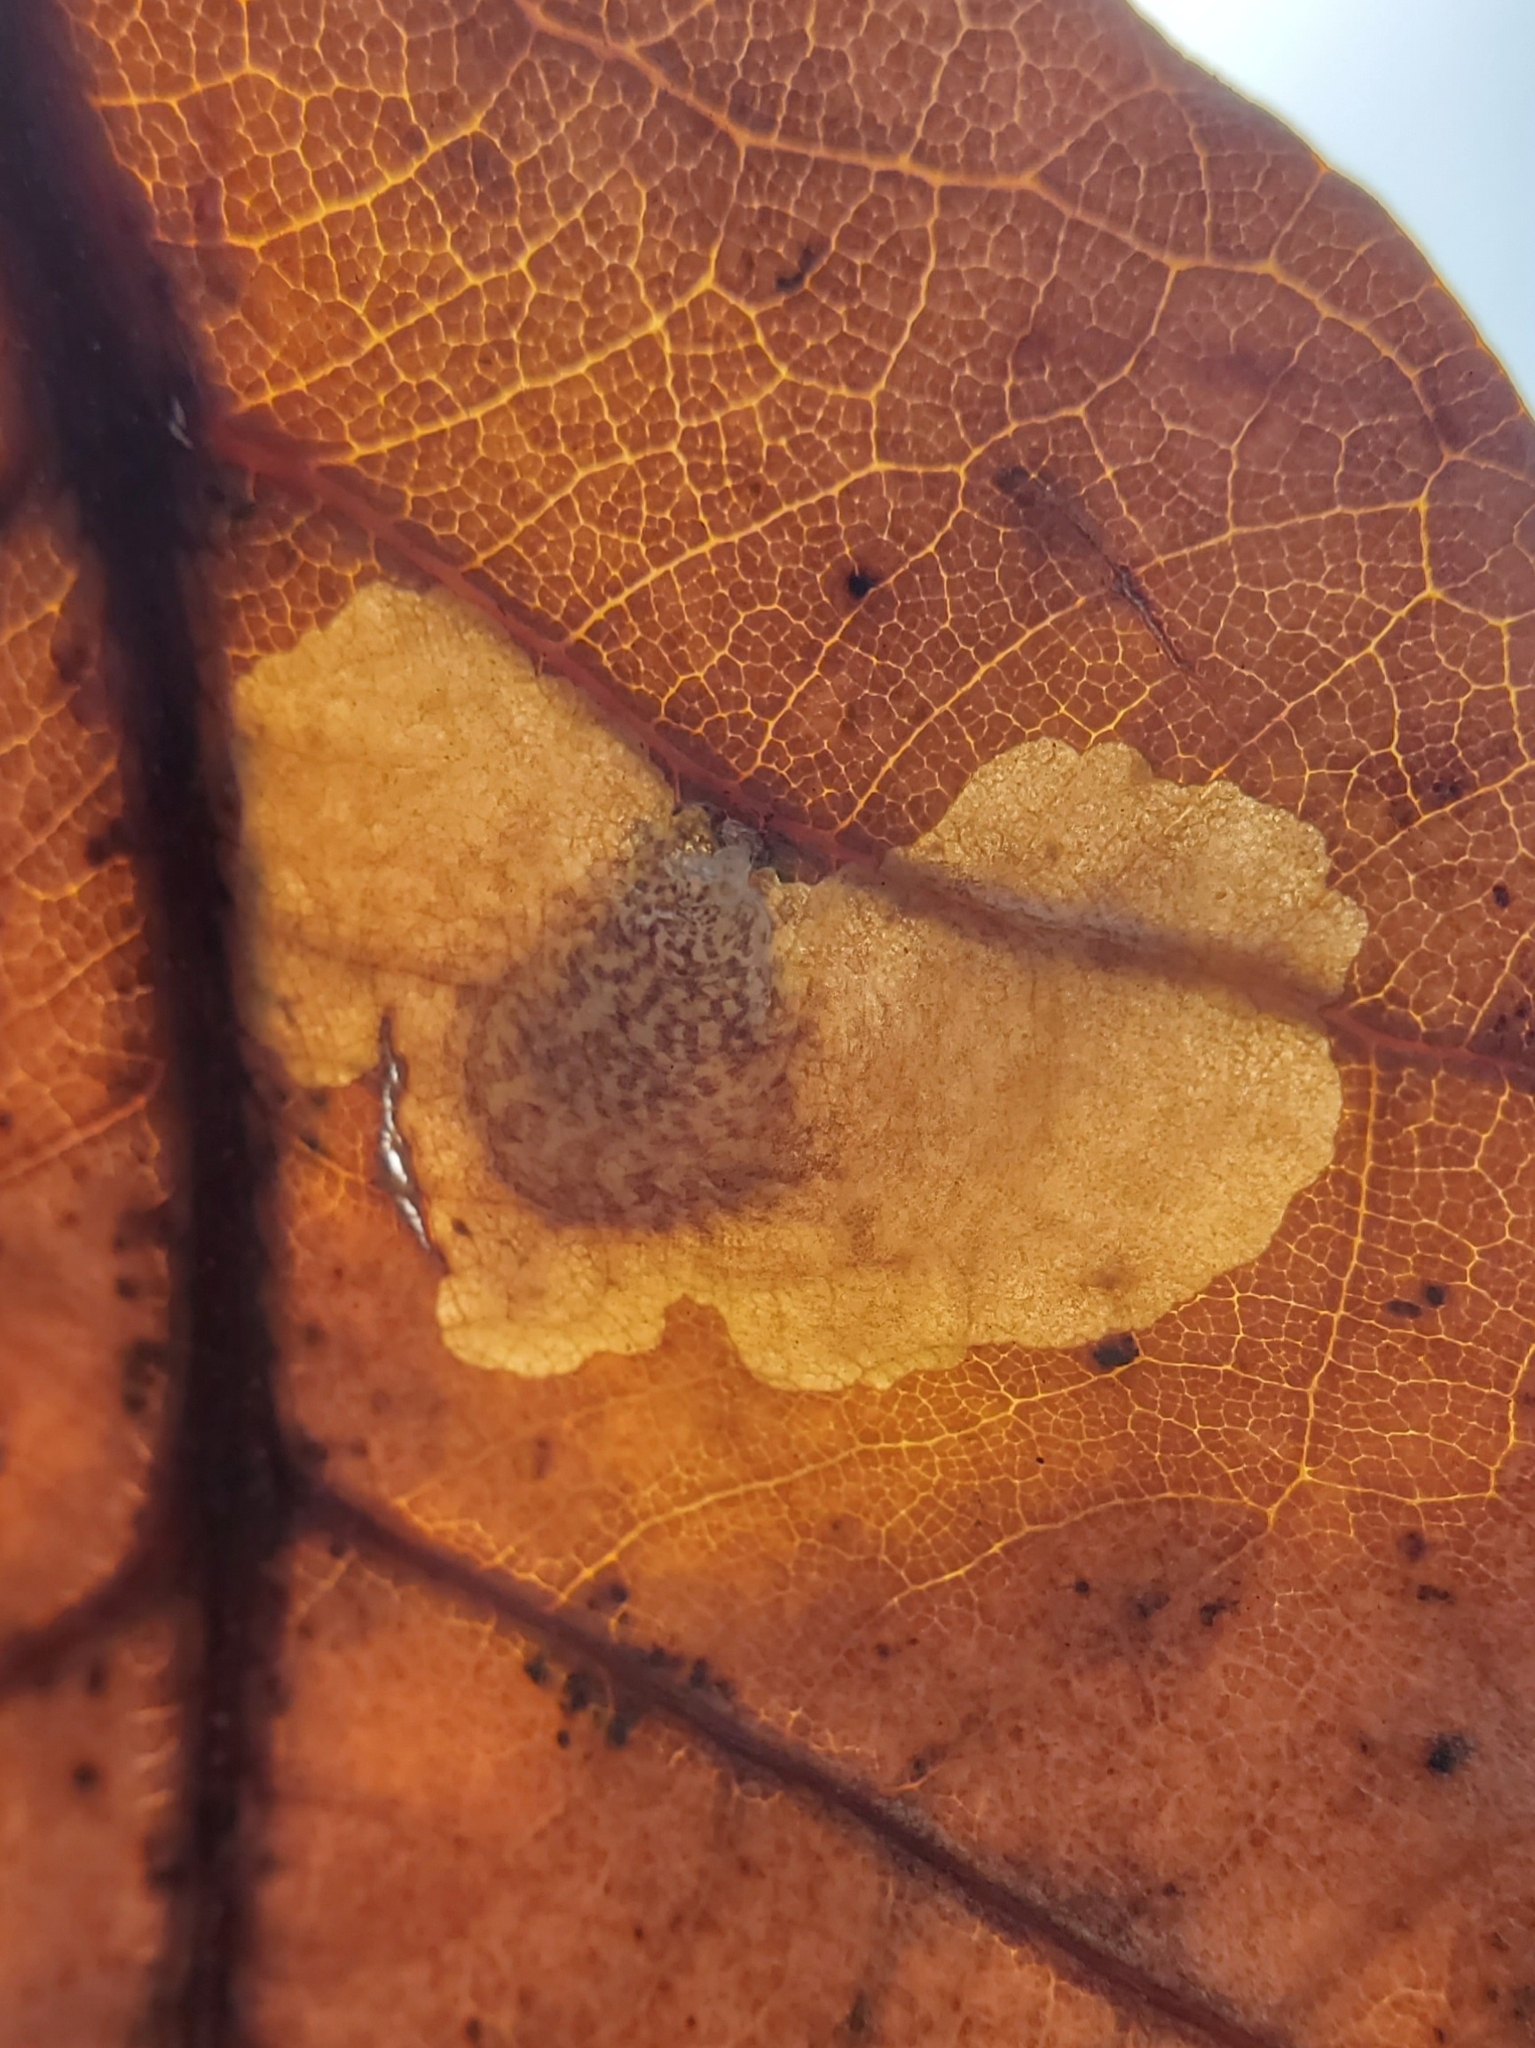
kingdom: Animalia
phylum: Arthropoda
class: Insecta
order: Lepidoptera
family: Tischeriidae
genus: Tischeria
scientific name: Tischeria quercitella
